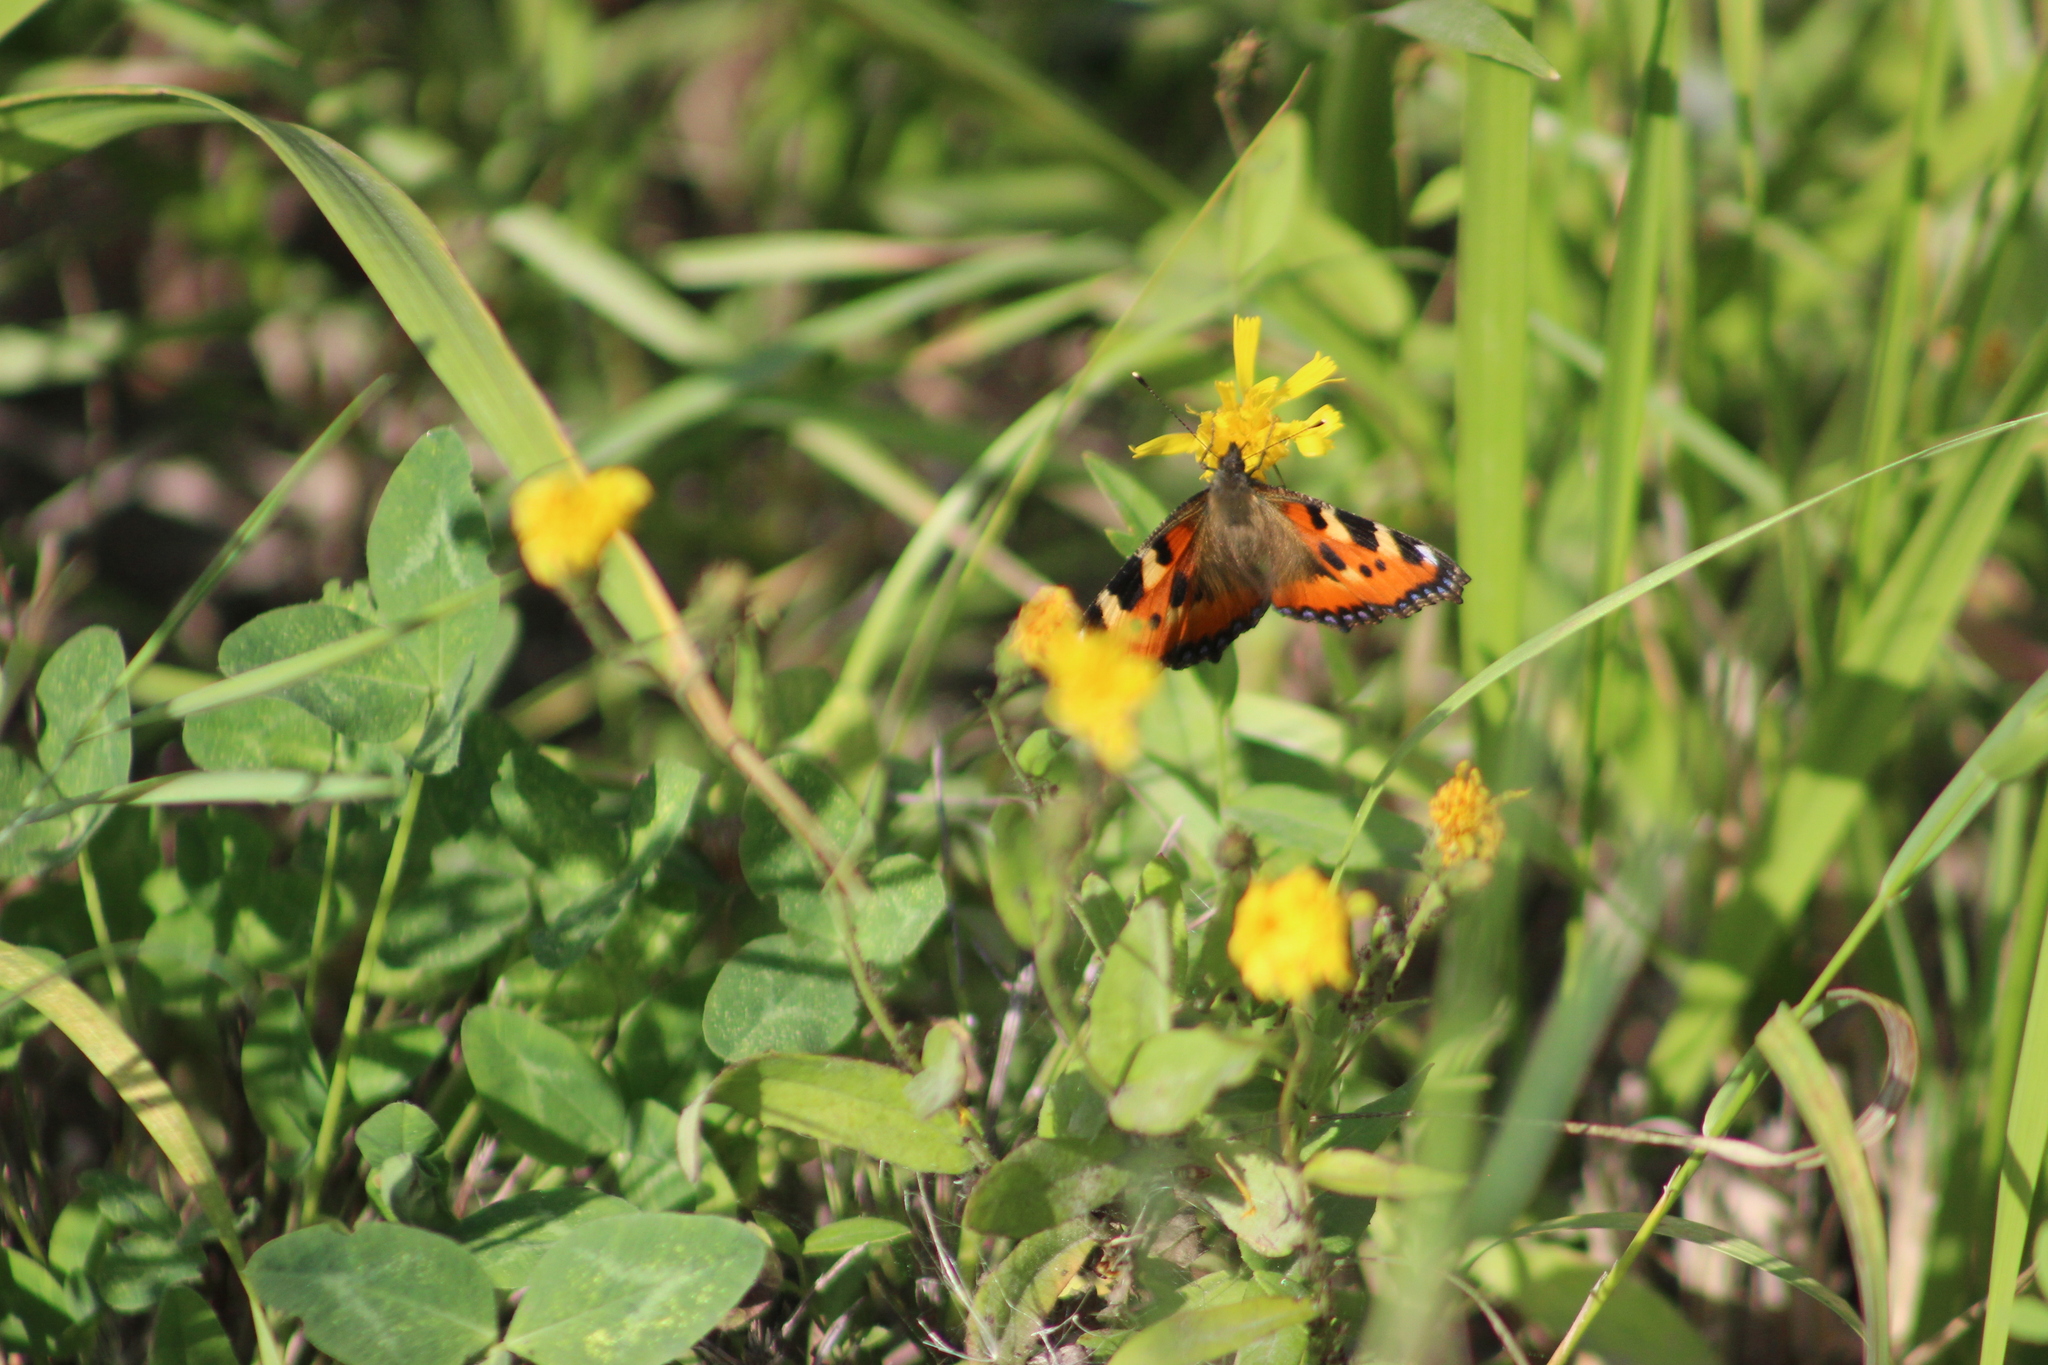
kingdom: Animalia
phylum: Arthropoda
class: Insecta
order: Lepidoptera
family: Nymphalidae
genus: Aglais
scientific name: Aglais urticae
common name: Small tortoiseshell
